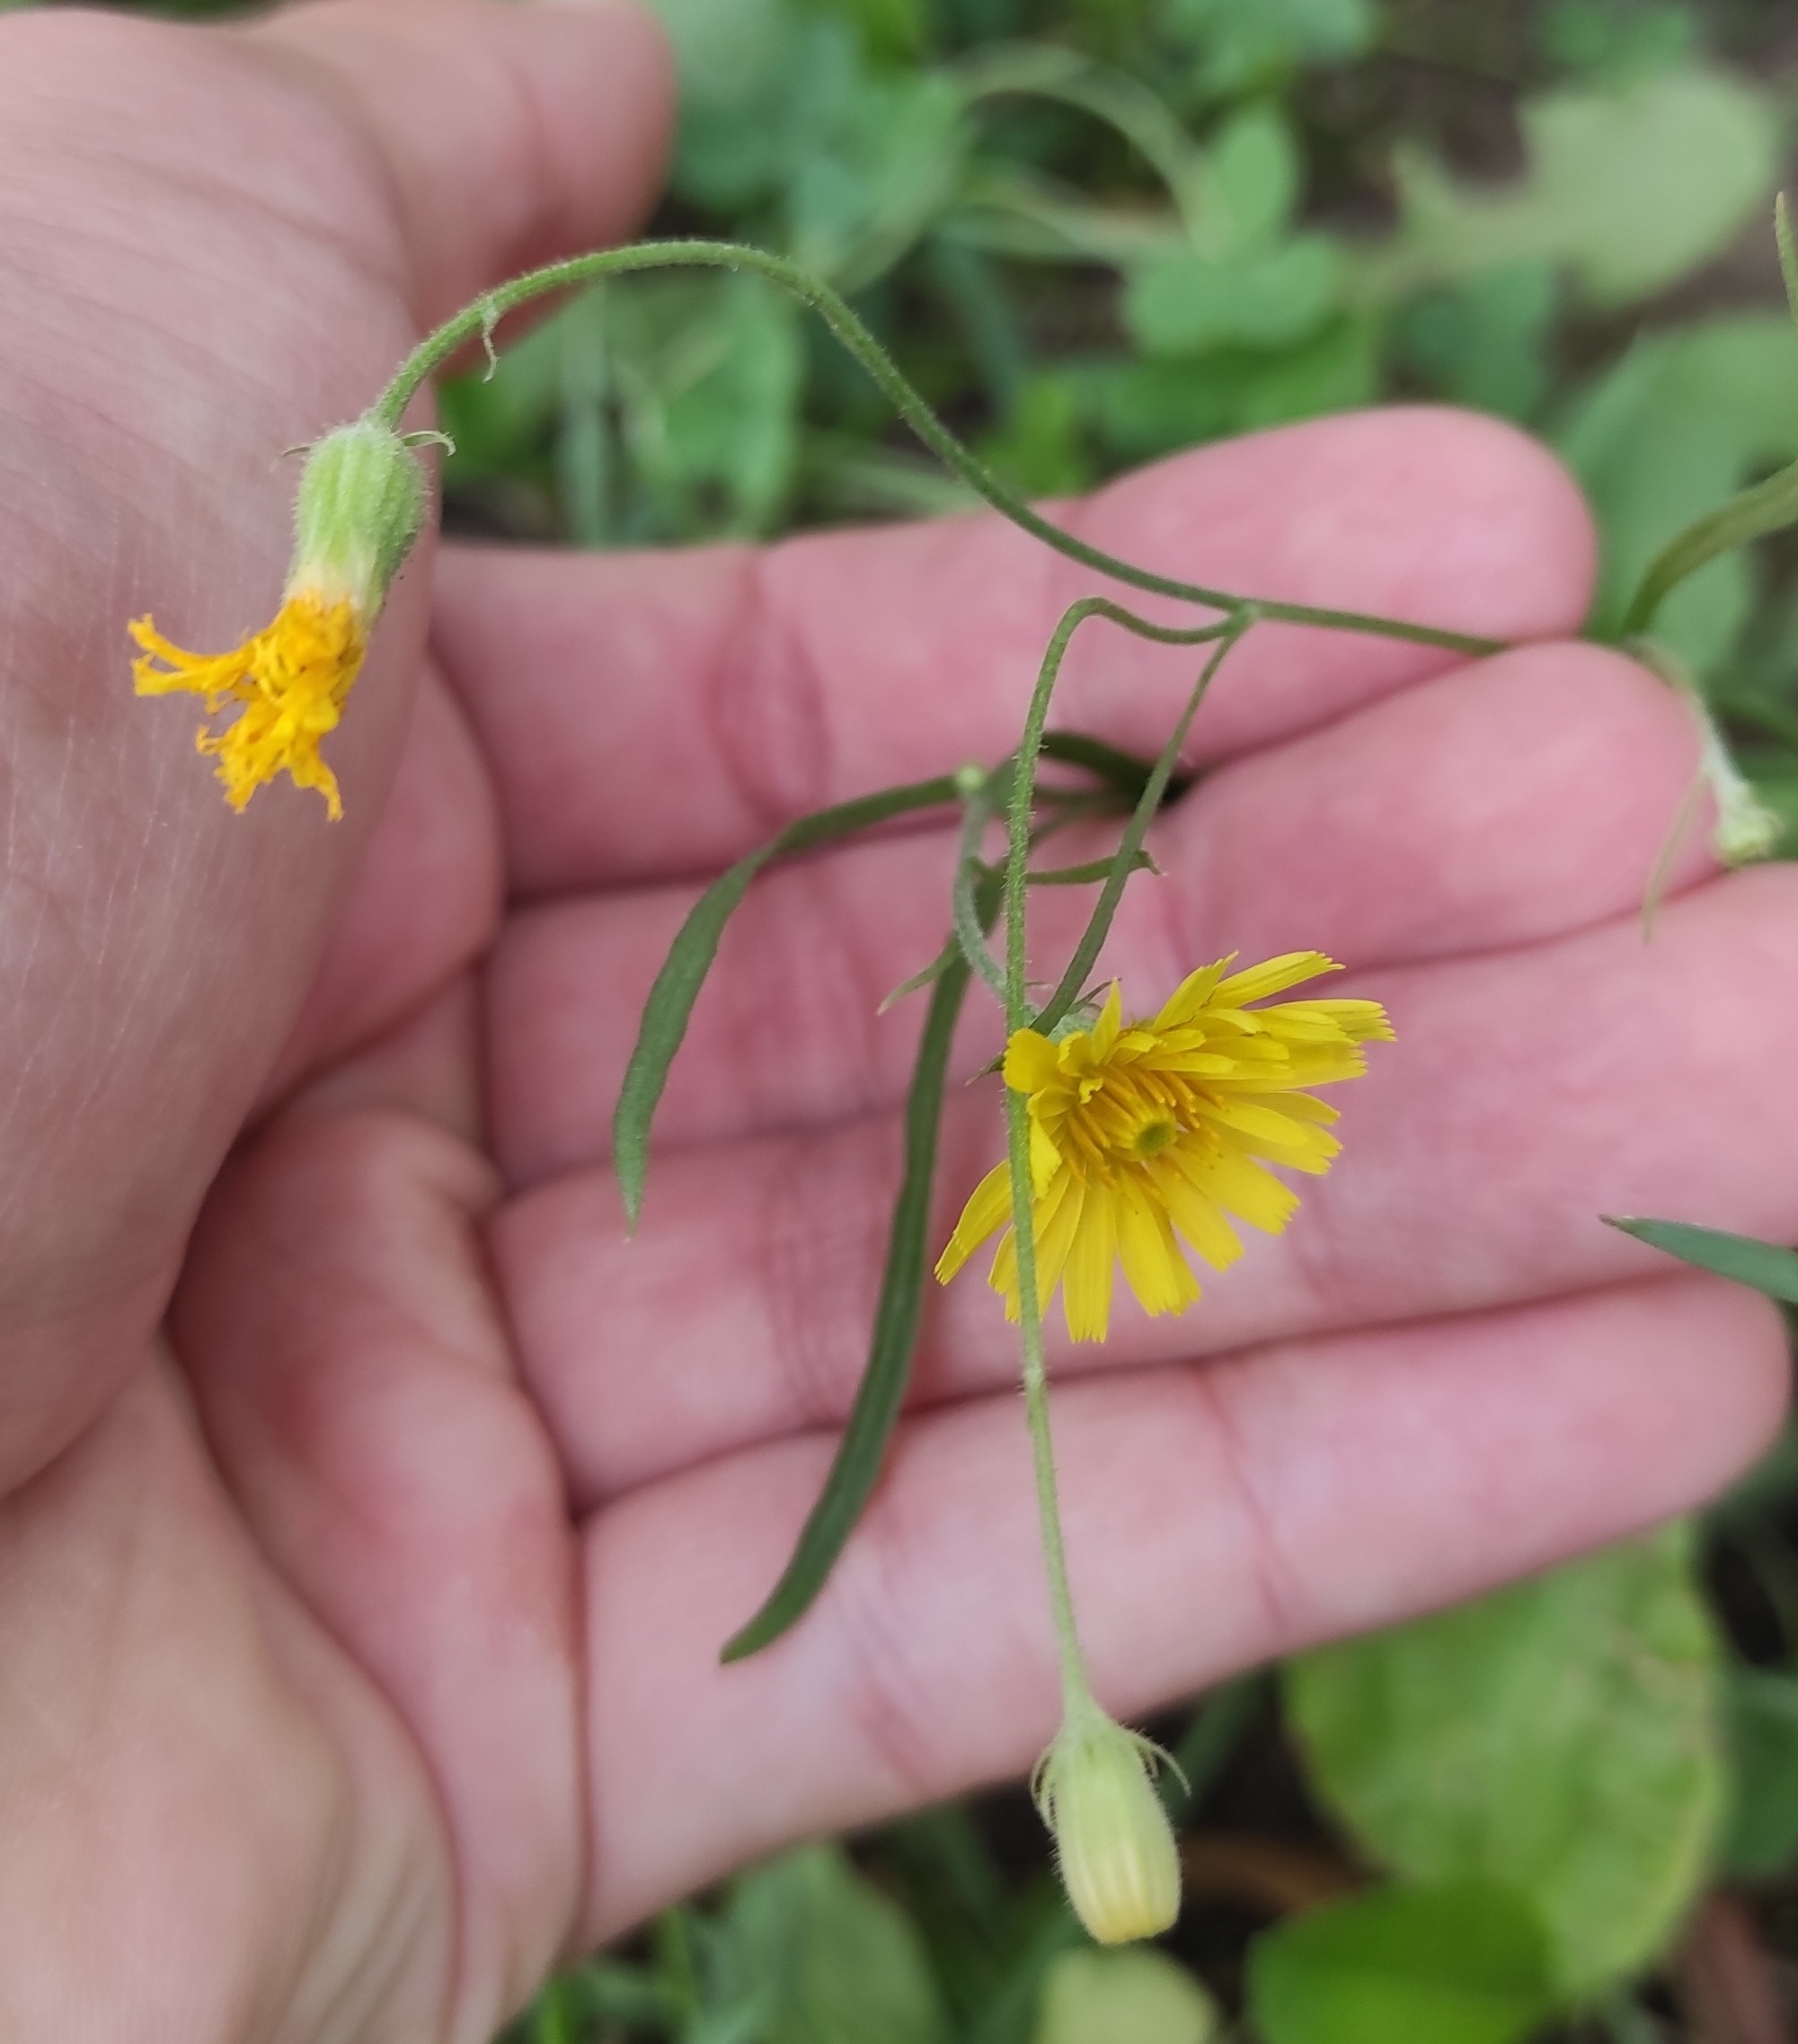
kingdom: Plantae
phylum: Tracheophyta
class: Magnoliopsida
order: Asterales
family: Asteraceae
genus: Crepis
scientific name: Crepis tectorum
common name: Narrow-leaved hawk's-beard
